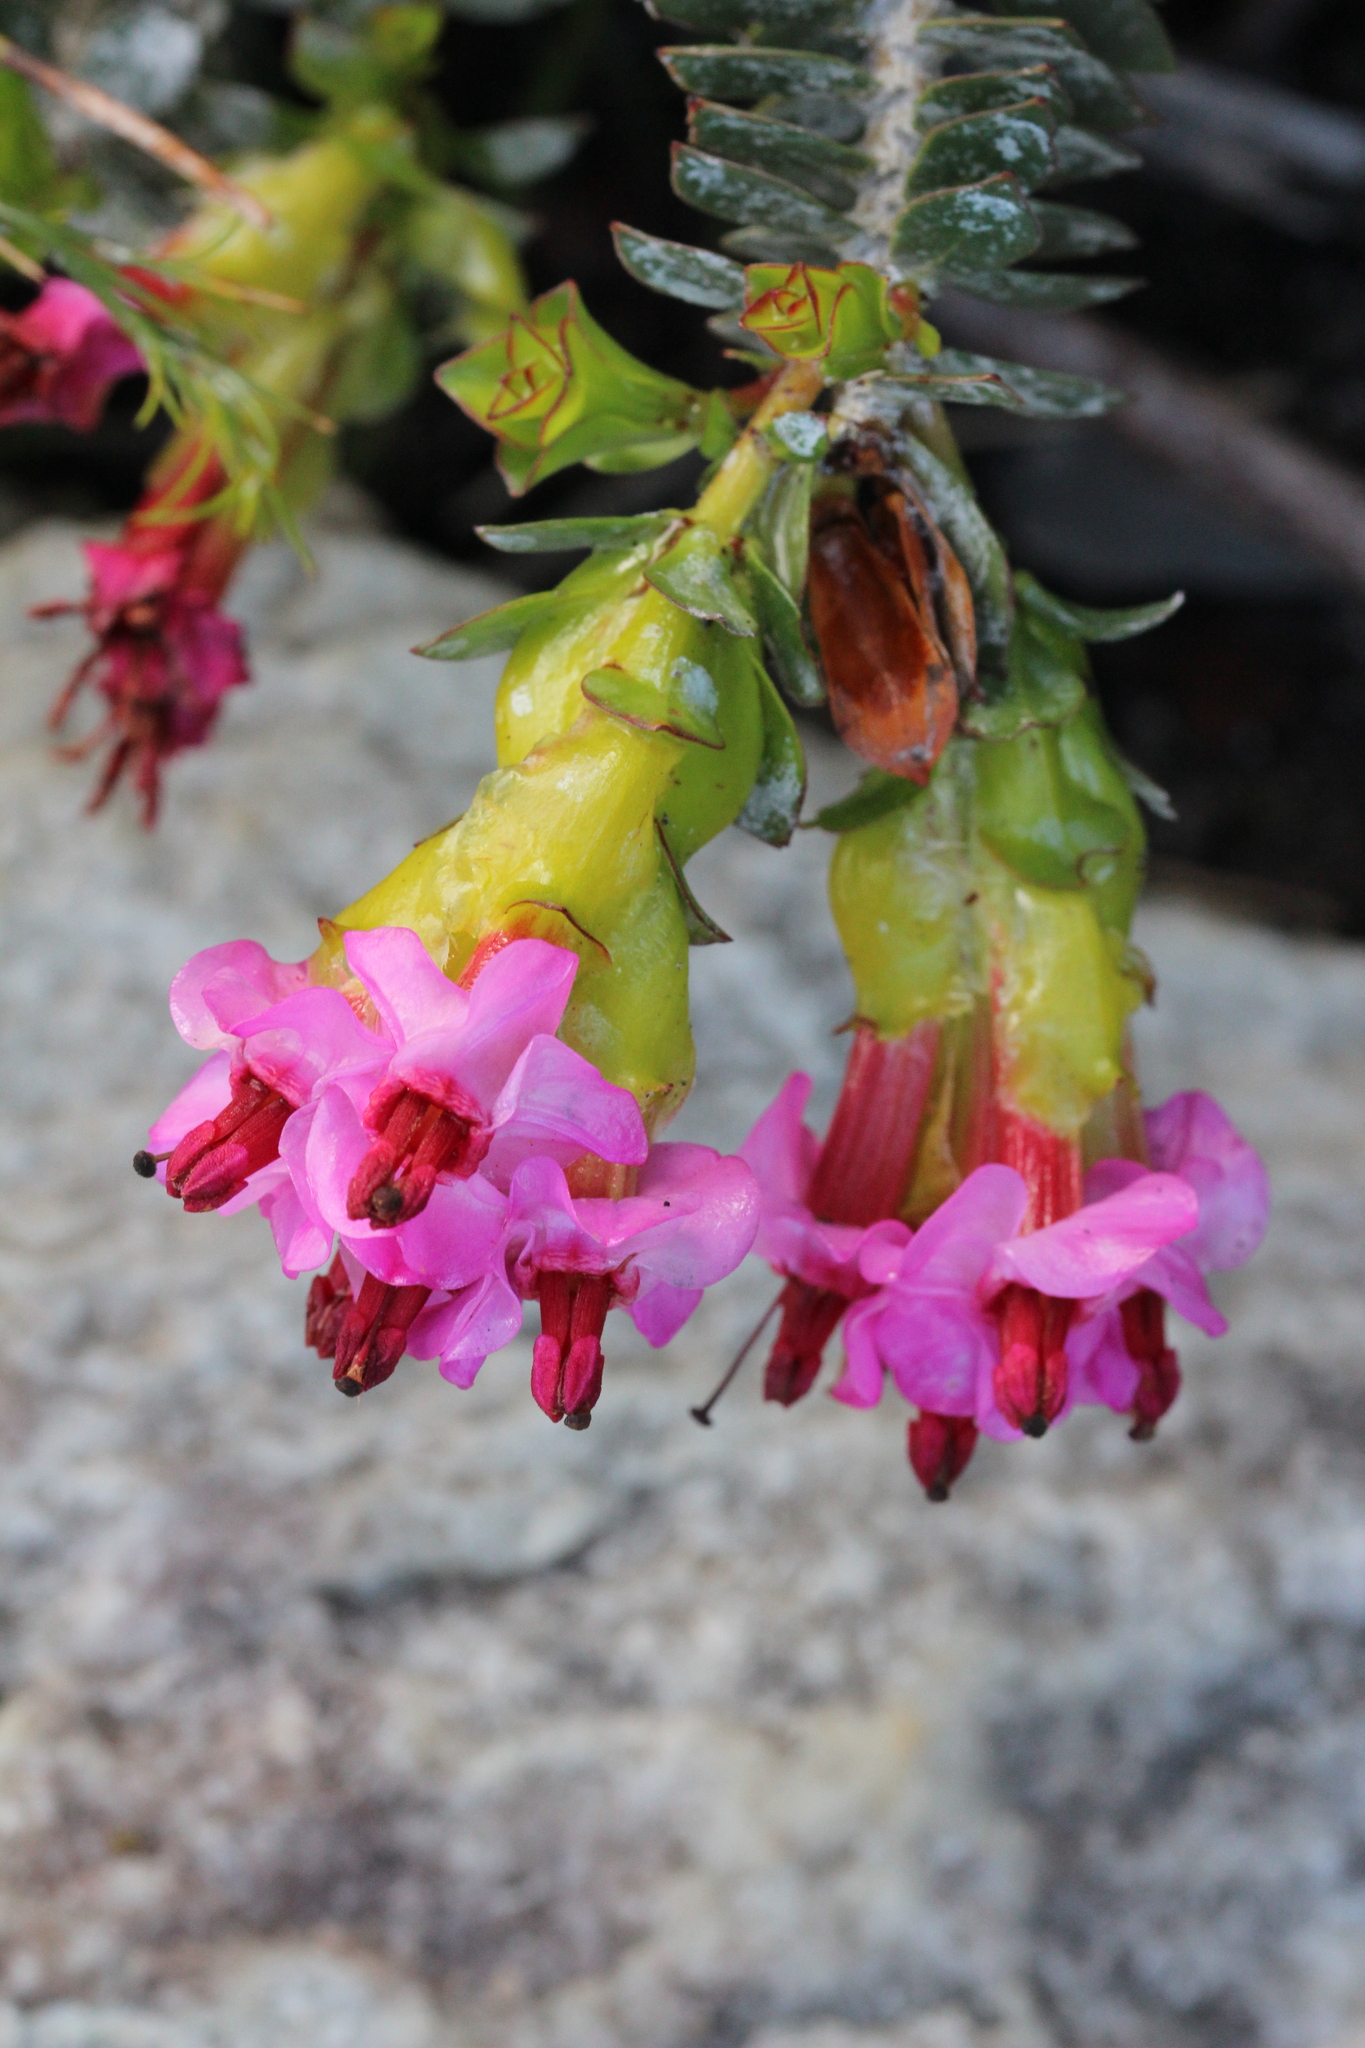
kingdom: Plantae
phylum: Tracheophyta
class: Magnoliopsida
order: Myrtales
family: Penaeaceae
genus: Saltera
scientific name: Saltera sarcocolla
